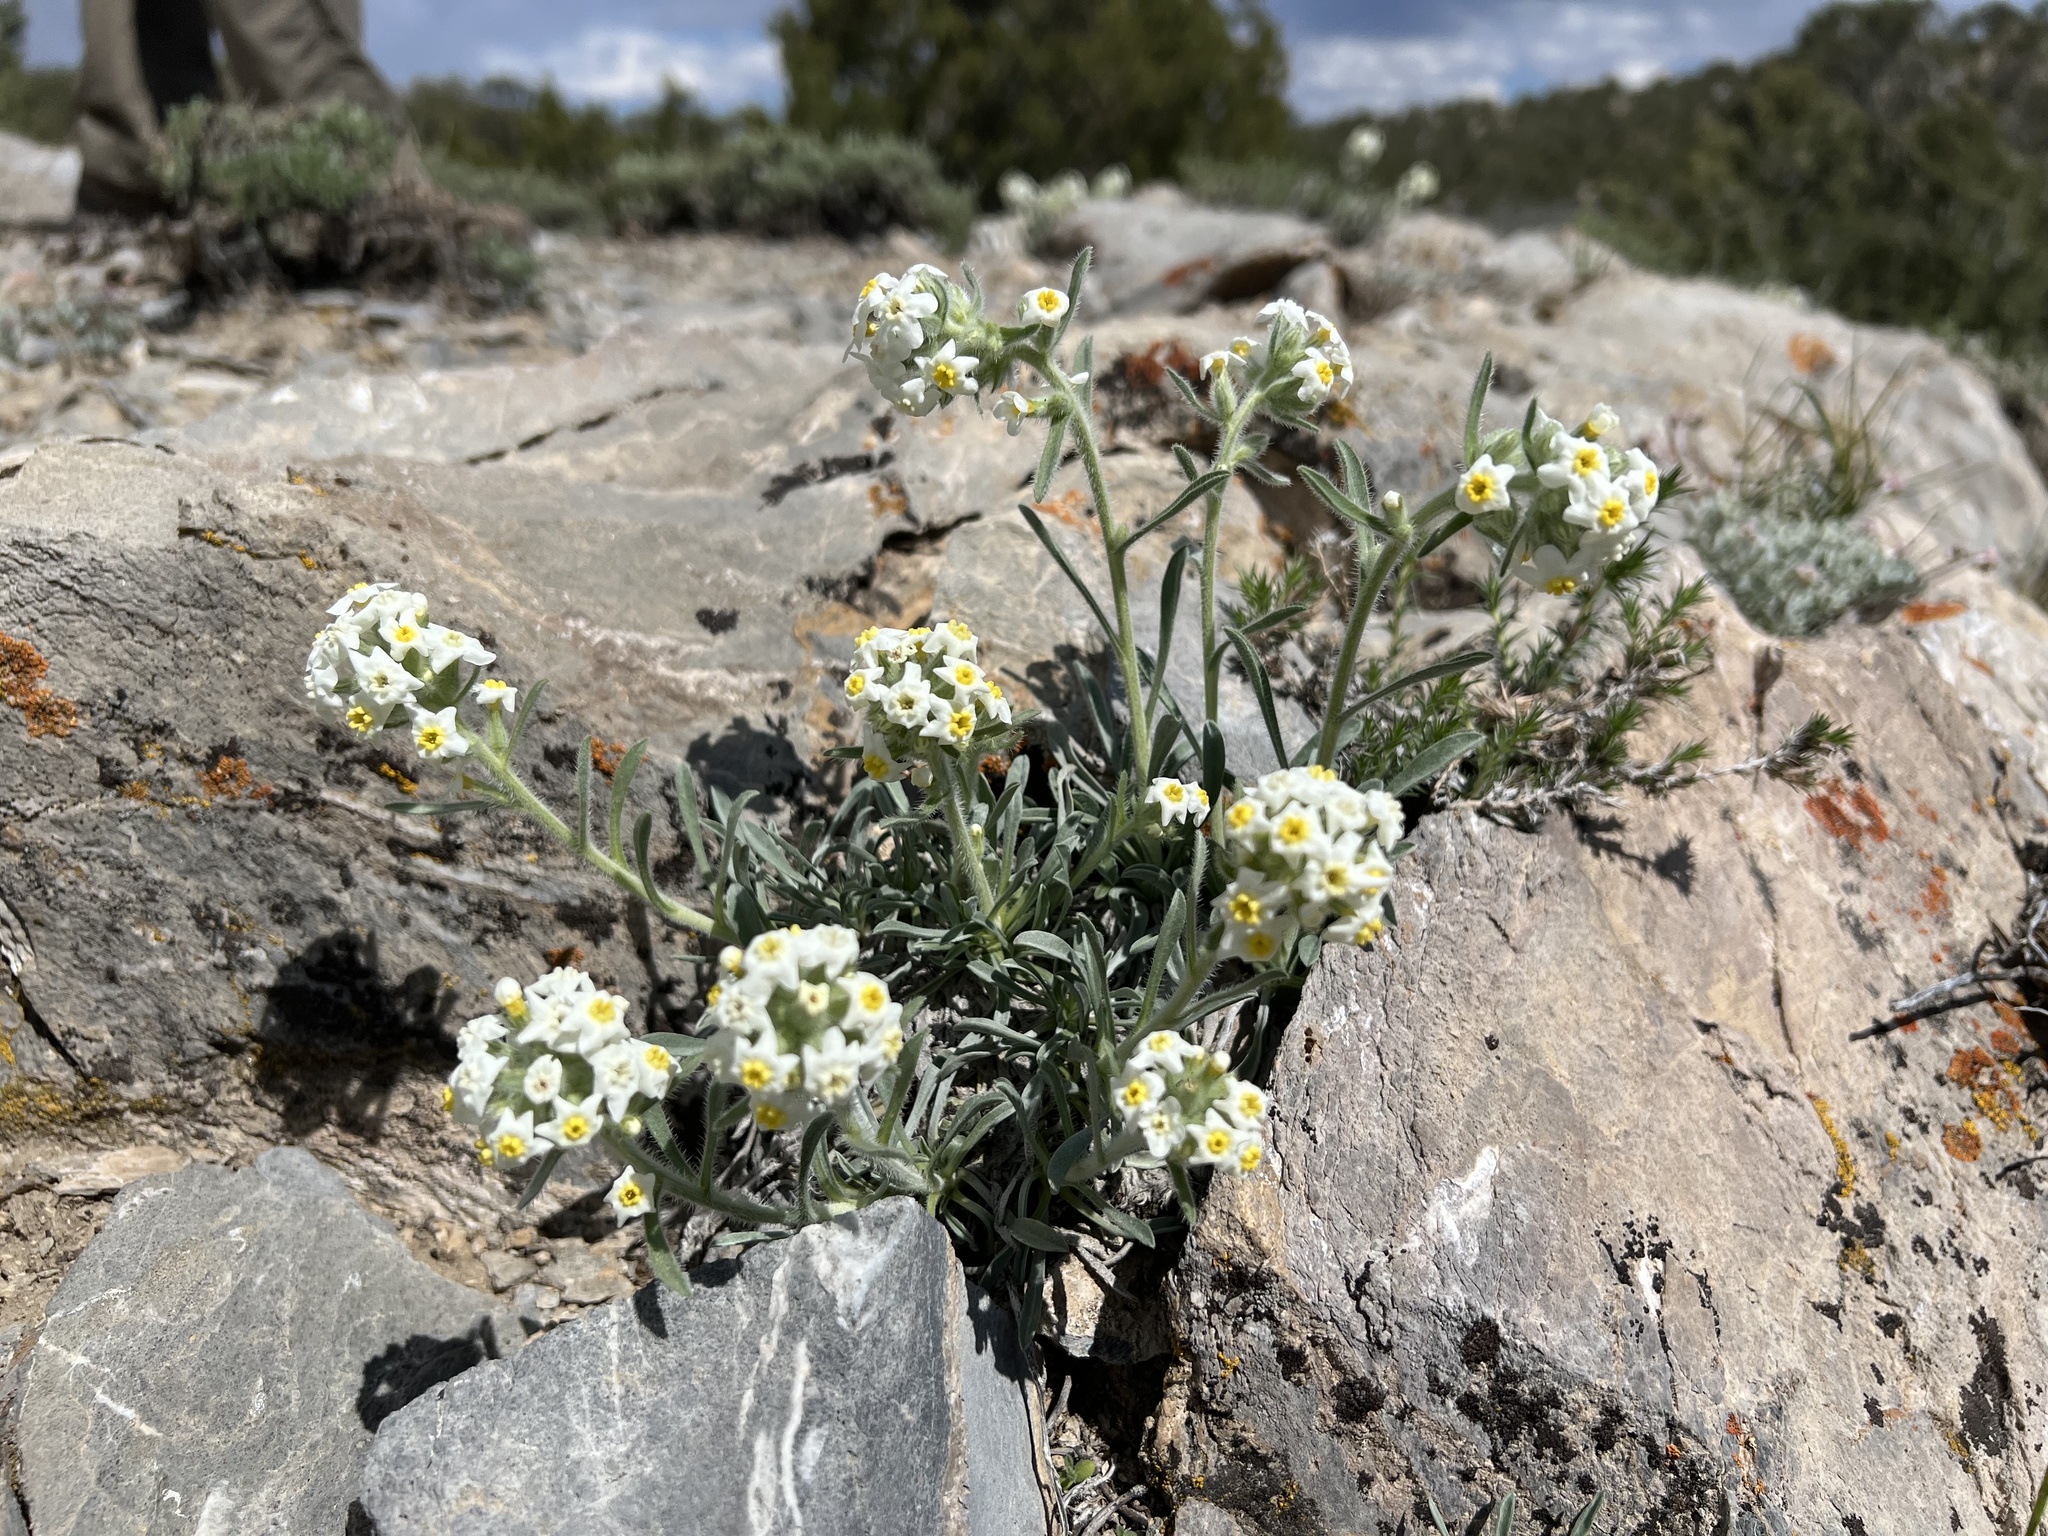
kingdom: Plantae
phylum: Tracheophyta
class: Magnoliopsida
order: Boraginales
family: Boraginaceae
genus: Oreocarya
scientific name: Oreocarya flavoculata
